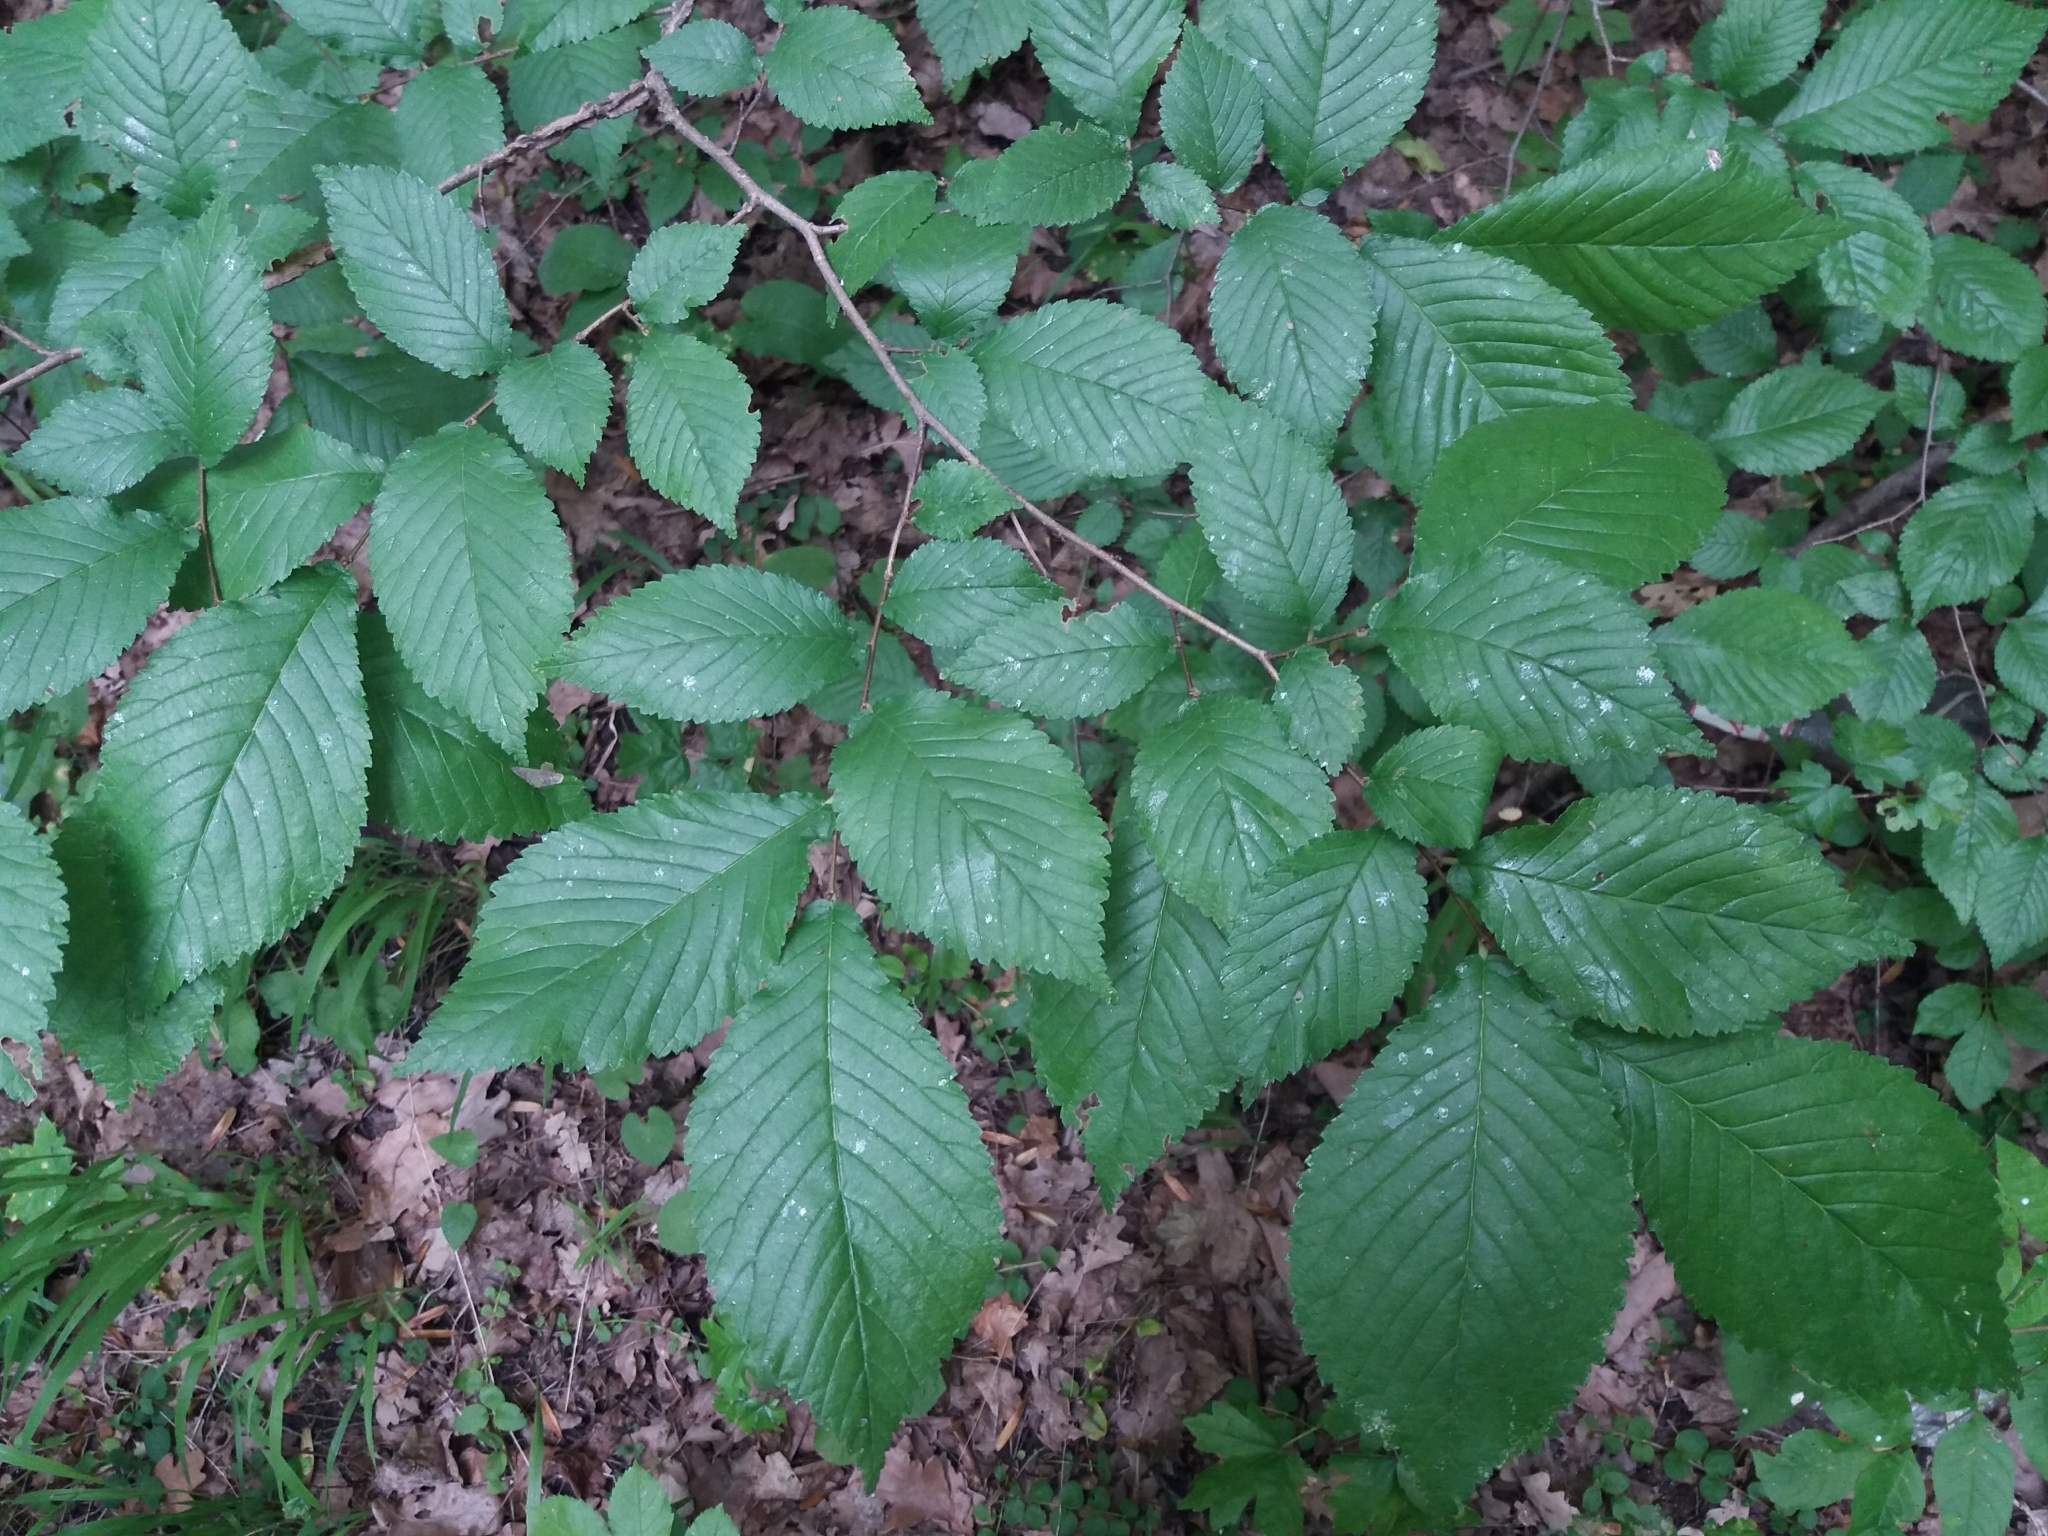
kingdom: Plantae
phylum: Tracheophyta
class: Magnoliopsida
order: Rosales
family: Ulmaceae
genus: Ulmus
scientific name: Ulmus glabra
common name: Wych elm
